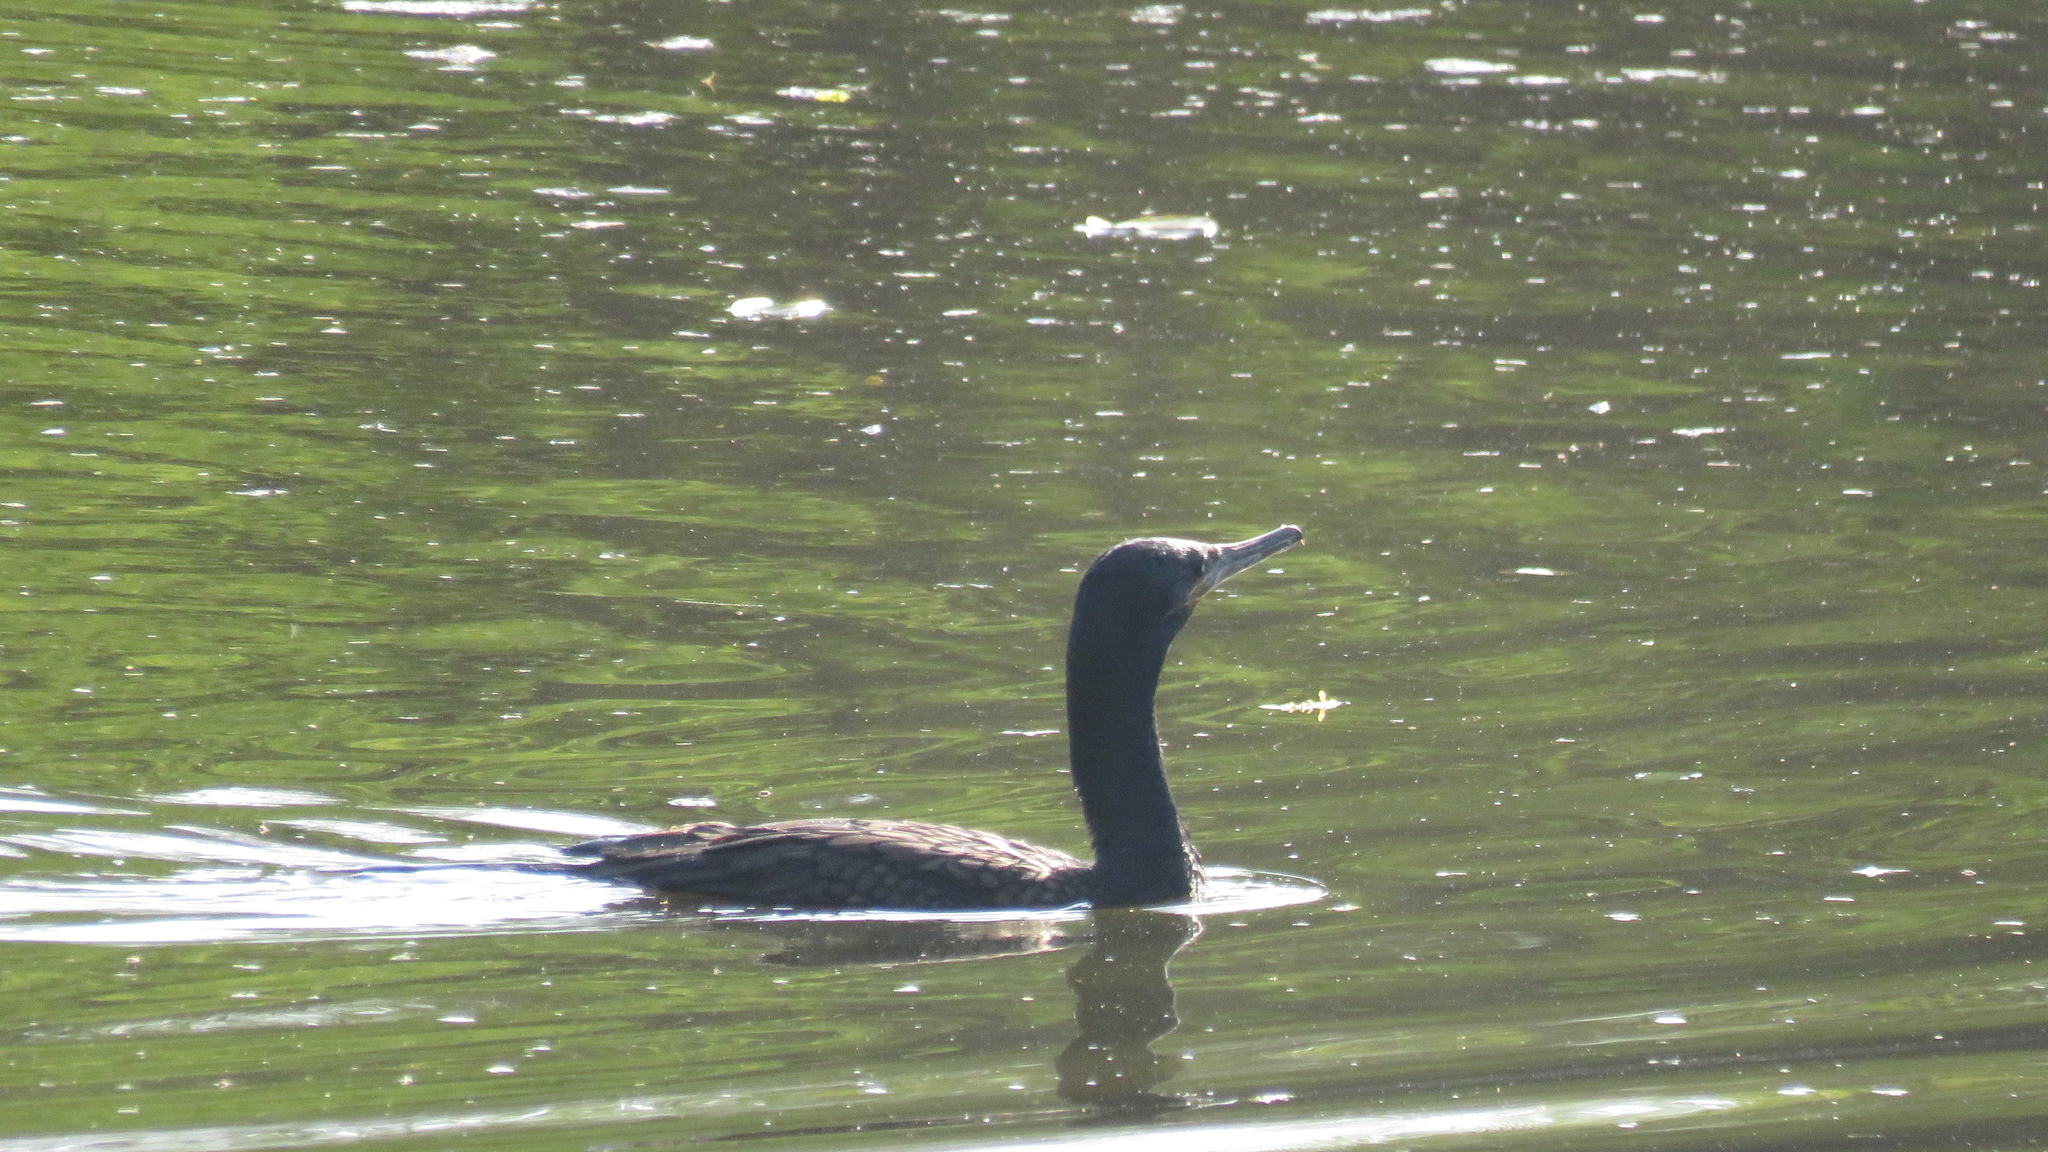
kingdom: Animalia
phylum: Chordata
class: Aves
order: Suliformes
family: Phalacrocoracidae
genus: Phalacrocorax
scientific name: Phalacrocorax fuscicollis
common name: Indian cormorant
